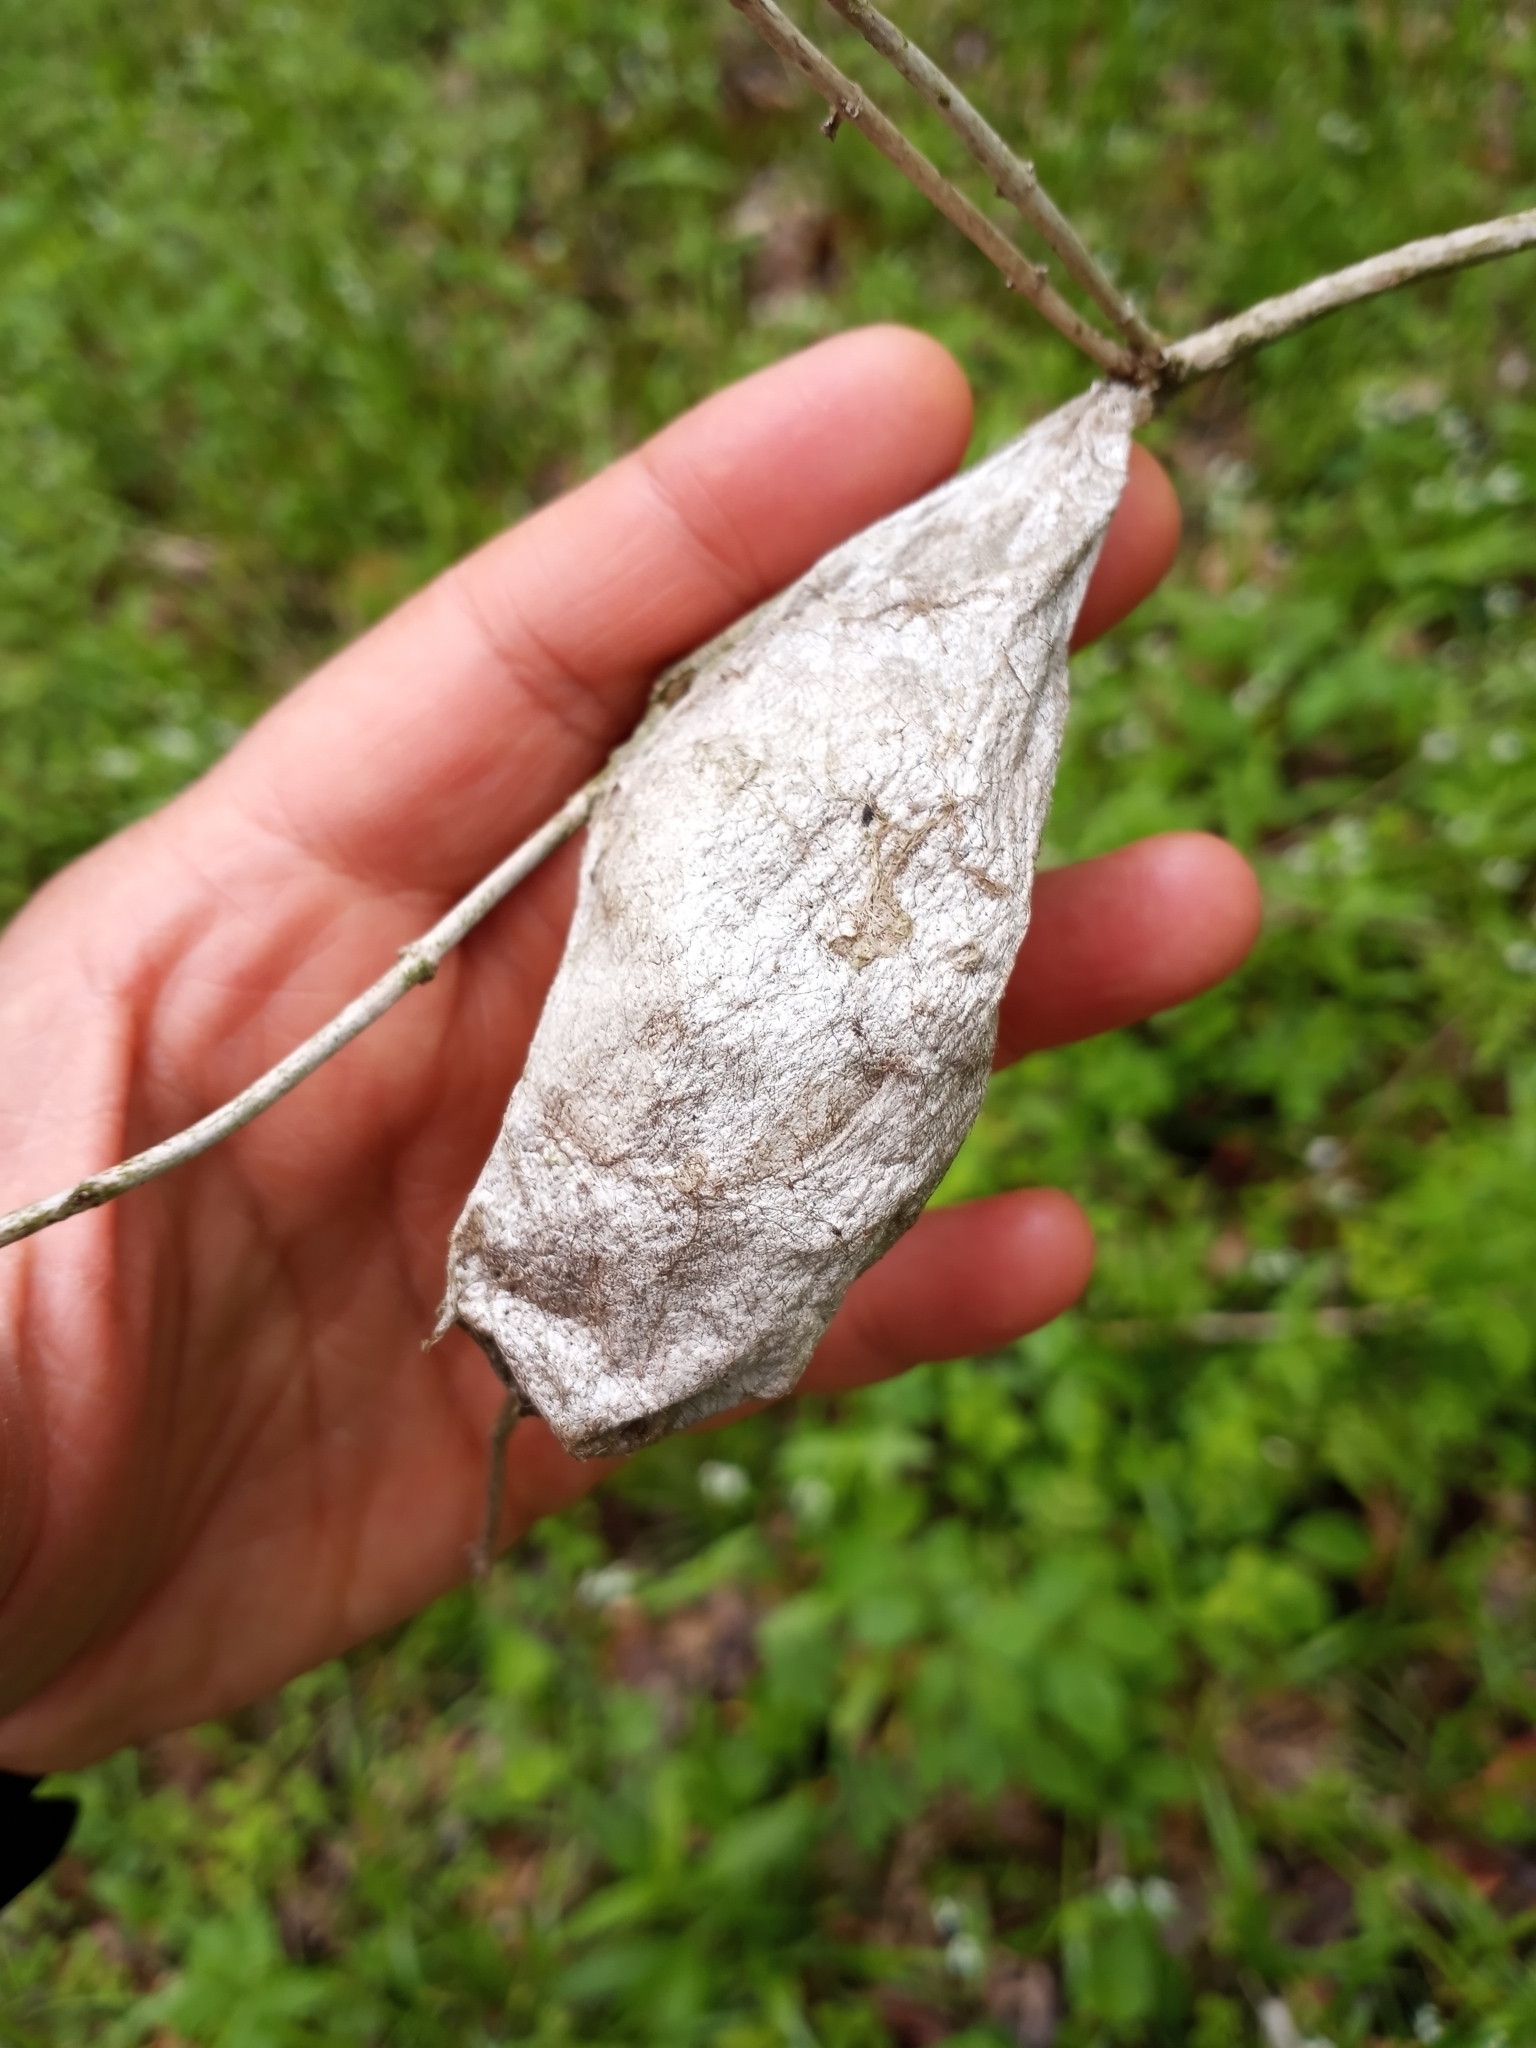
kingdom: Animalia
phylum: Arthropoda
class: Insecta
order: Lepidoptera
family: Saturniidae
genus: Hyalophora
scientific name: Hyalophora cecropia
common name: Cecropia silkmoth
